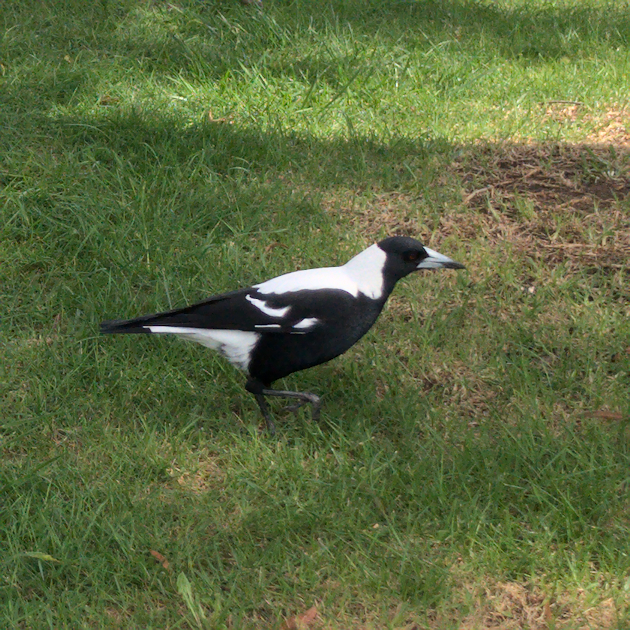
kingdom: Animalia
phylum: Chordata
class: Aves
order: Passeriformes
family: Cracticidae
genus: Gymnorhina
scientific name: Gymnorhina tibicen
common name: Australian magpie
